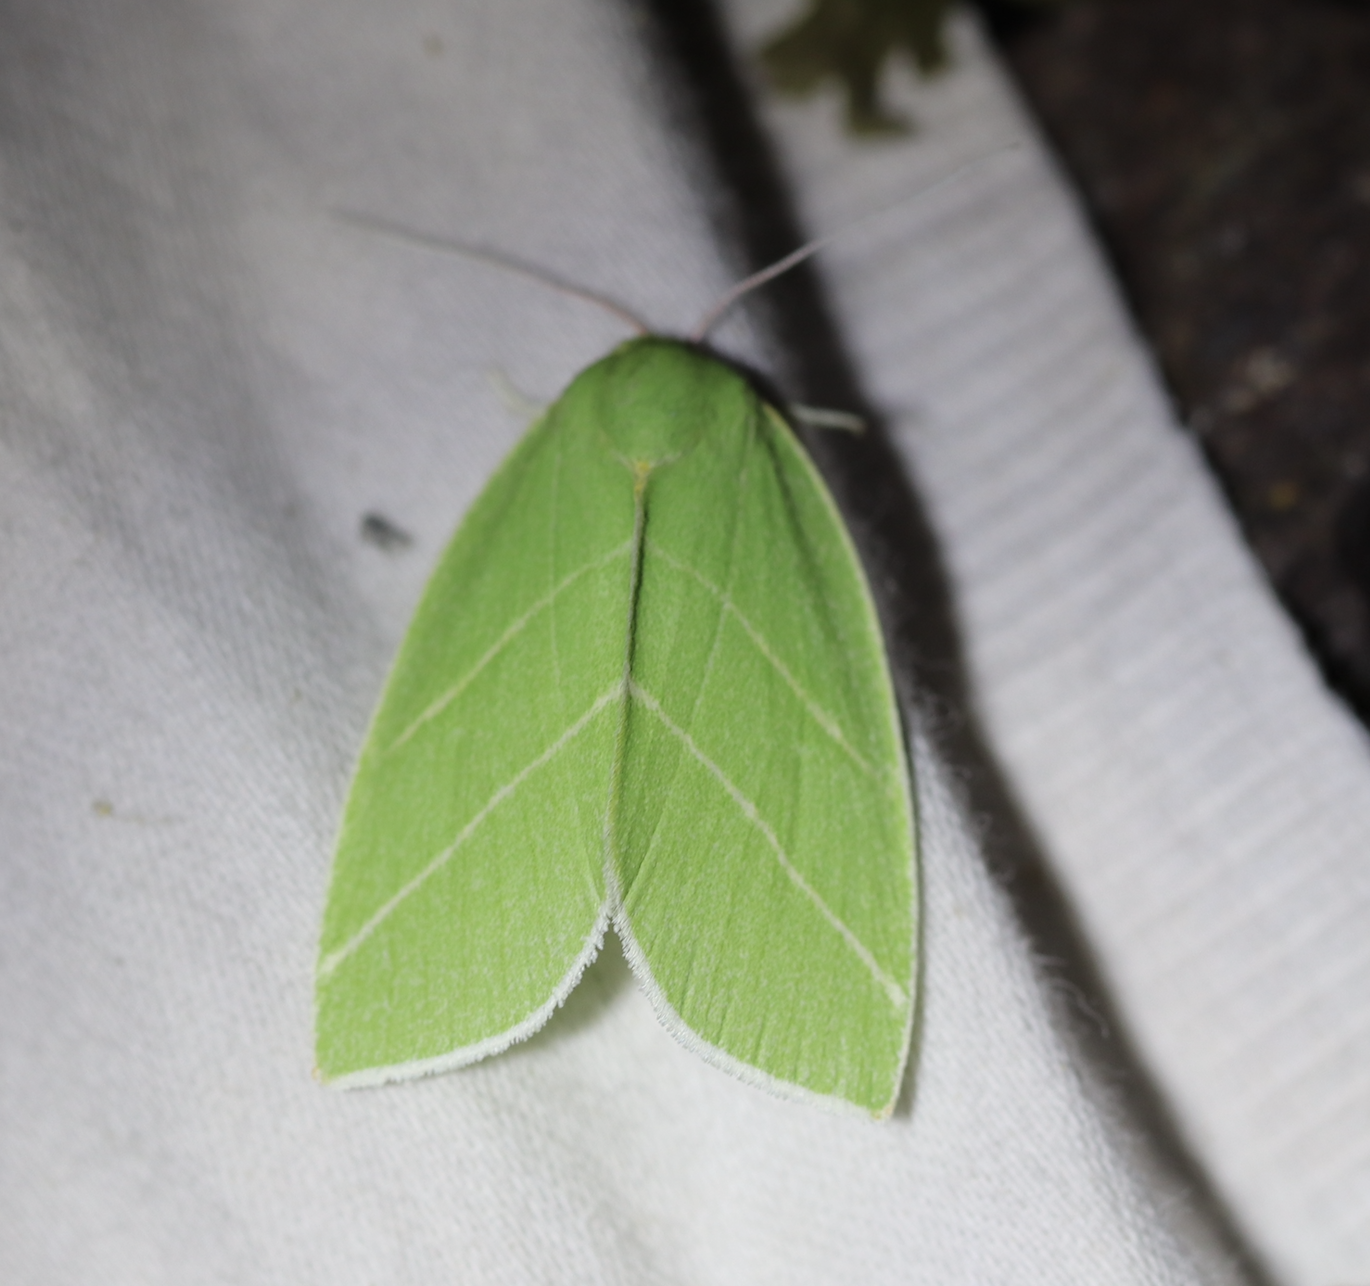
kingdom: Animalia
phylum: Arthropoda
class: Insecta
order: Lepidoptera
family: Nolidae
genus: Bena
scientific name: Bena bicolorana
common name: Scarce silver-lines
